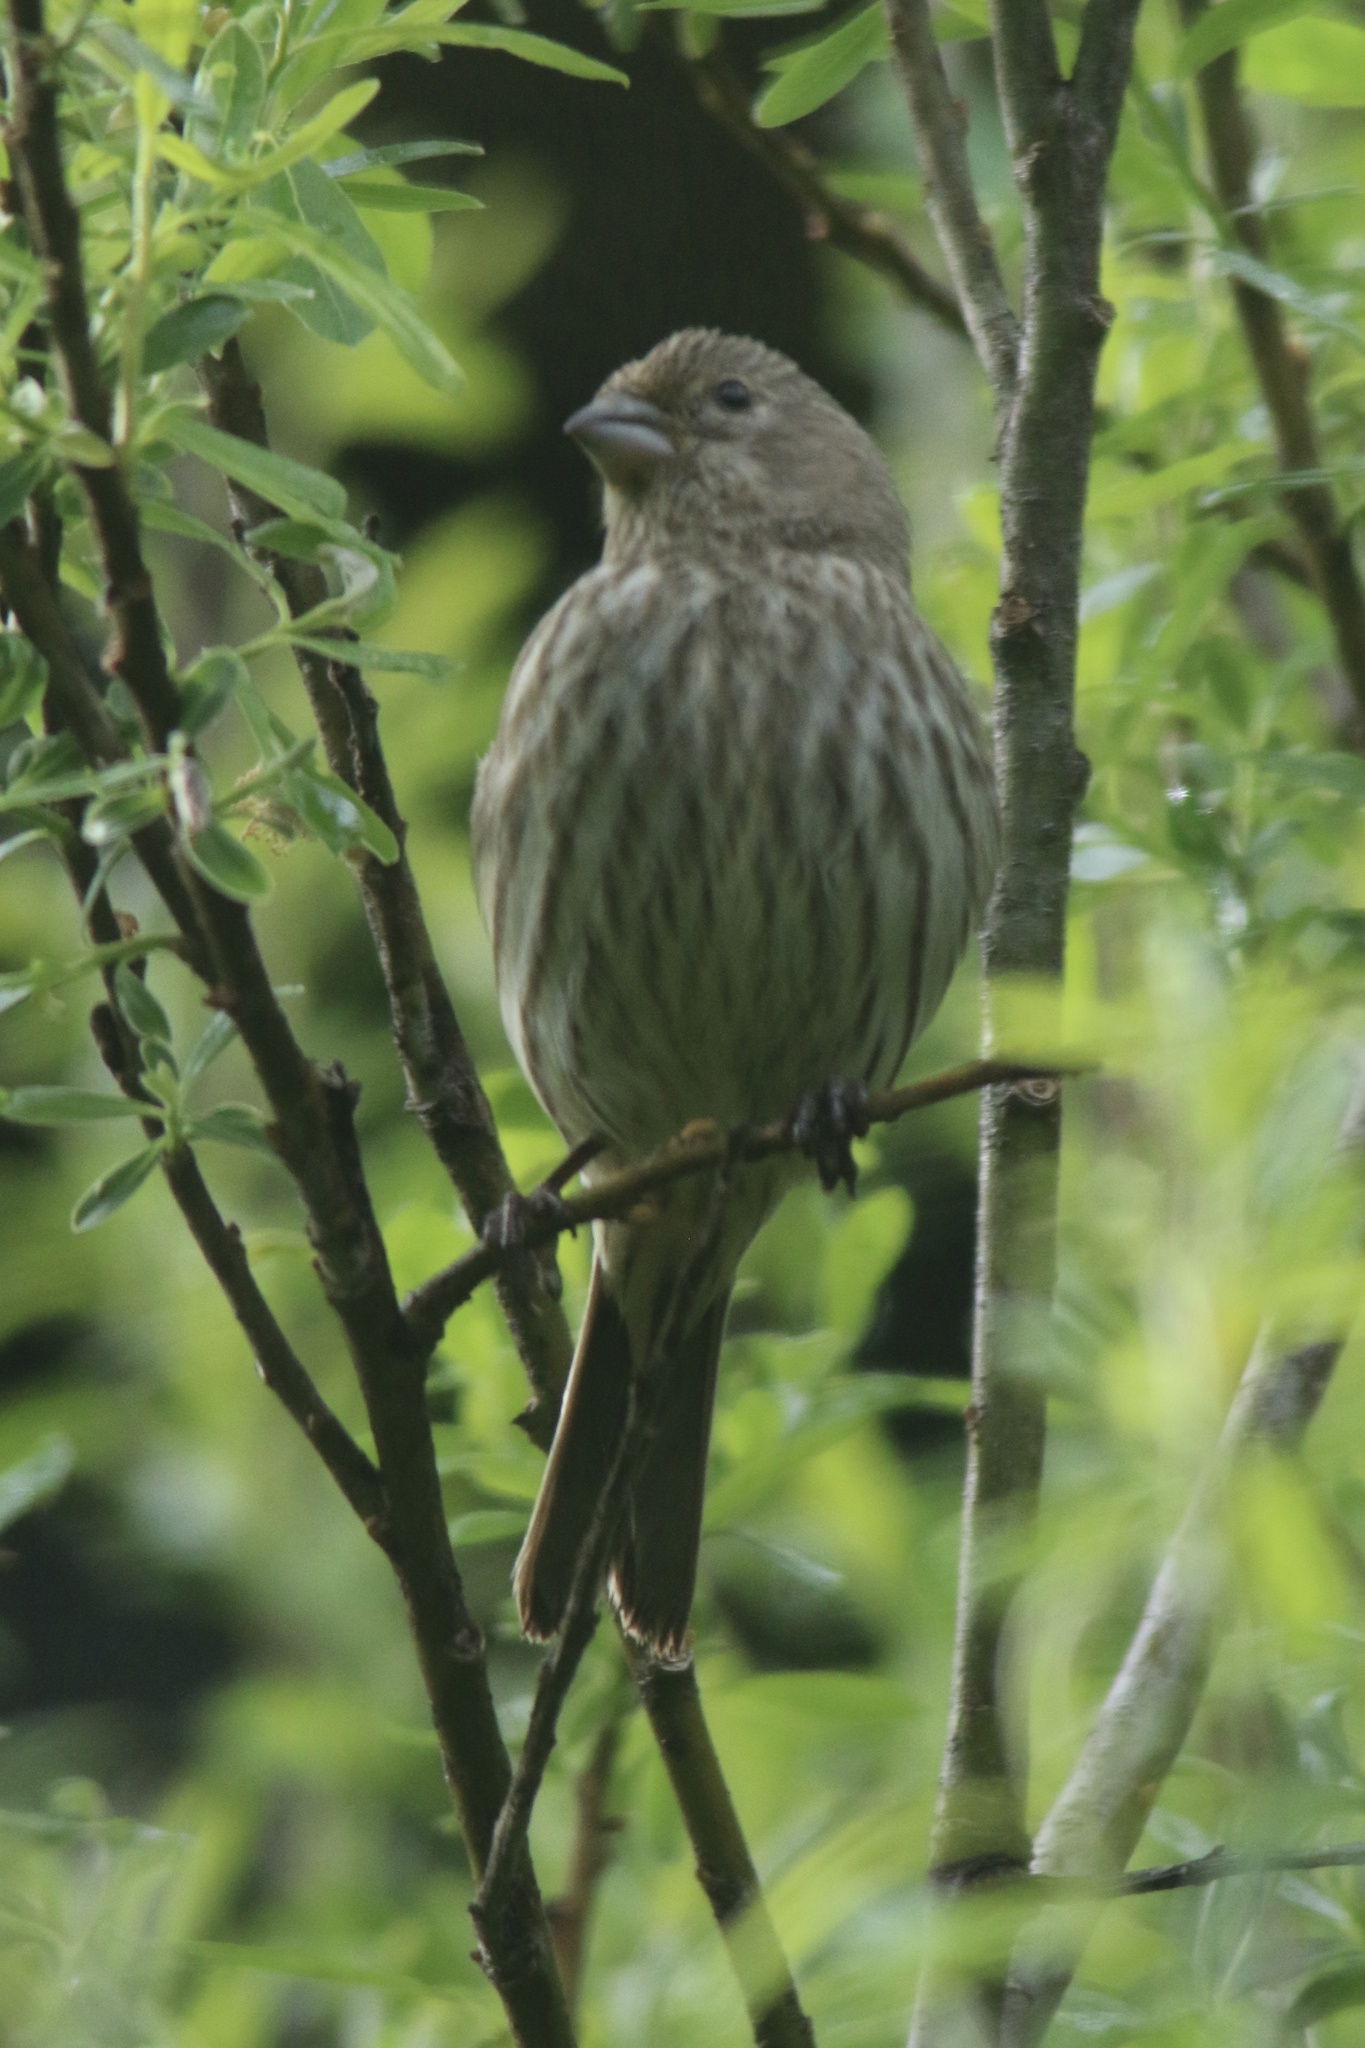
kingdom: Animalia
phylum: Chordata
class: Aves
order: Passeriformes
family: Fringillidae
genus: Haemorhous
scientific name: Haemorhous mexicanus
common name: House finch
